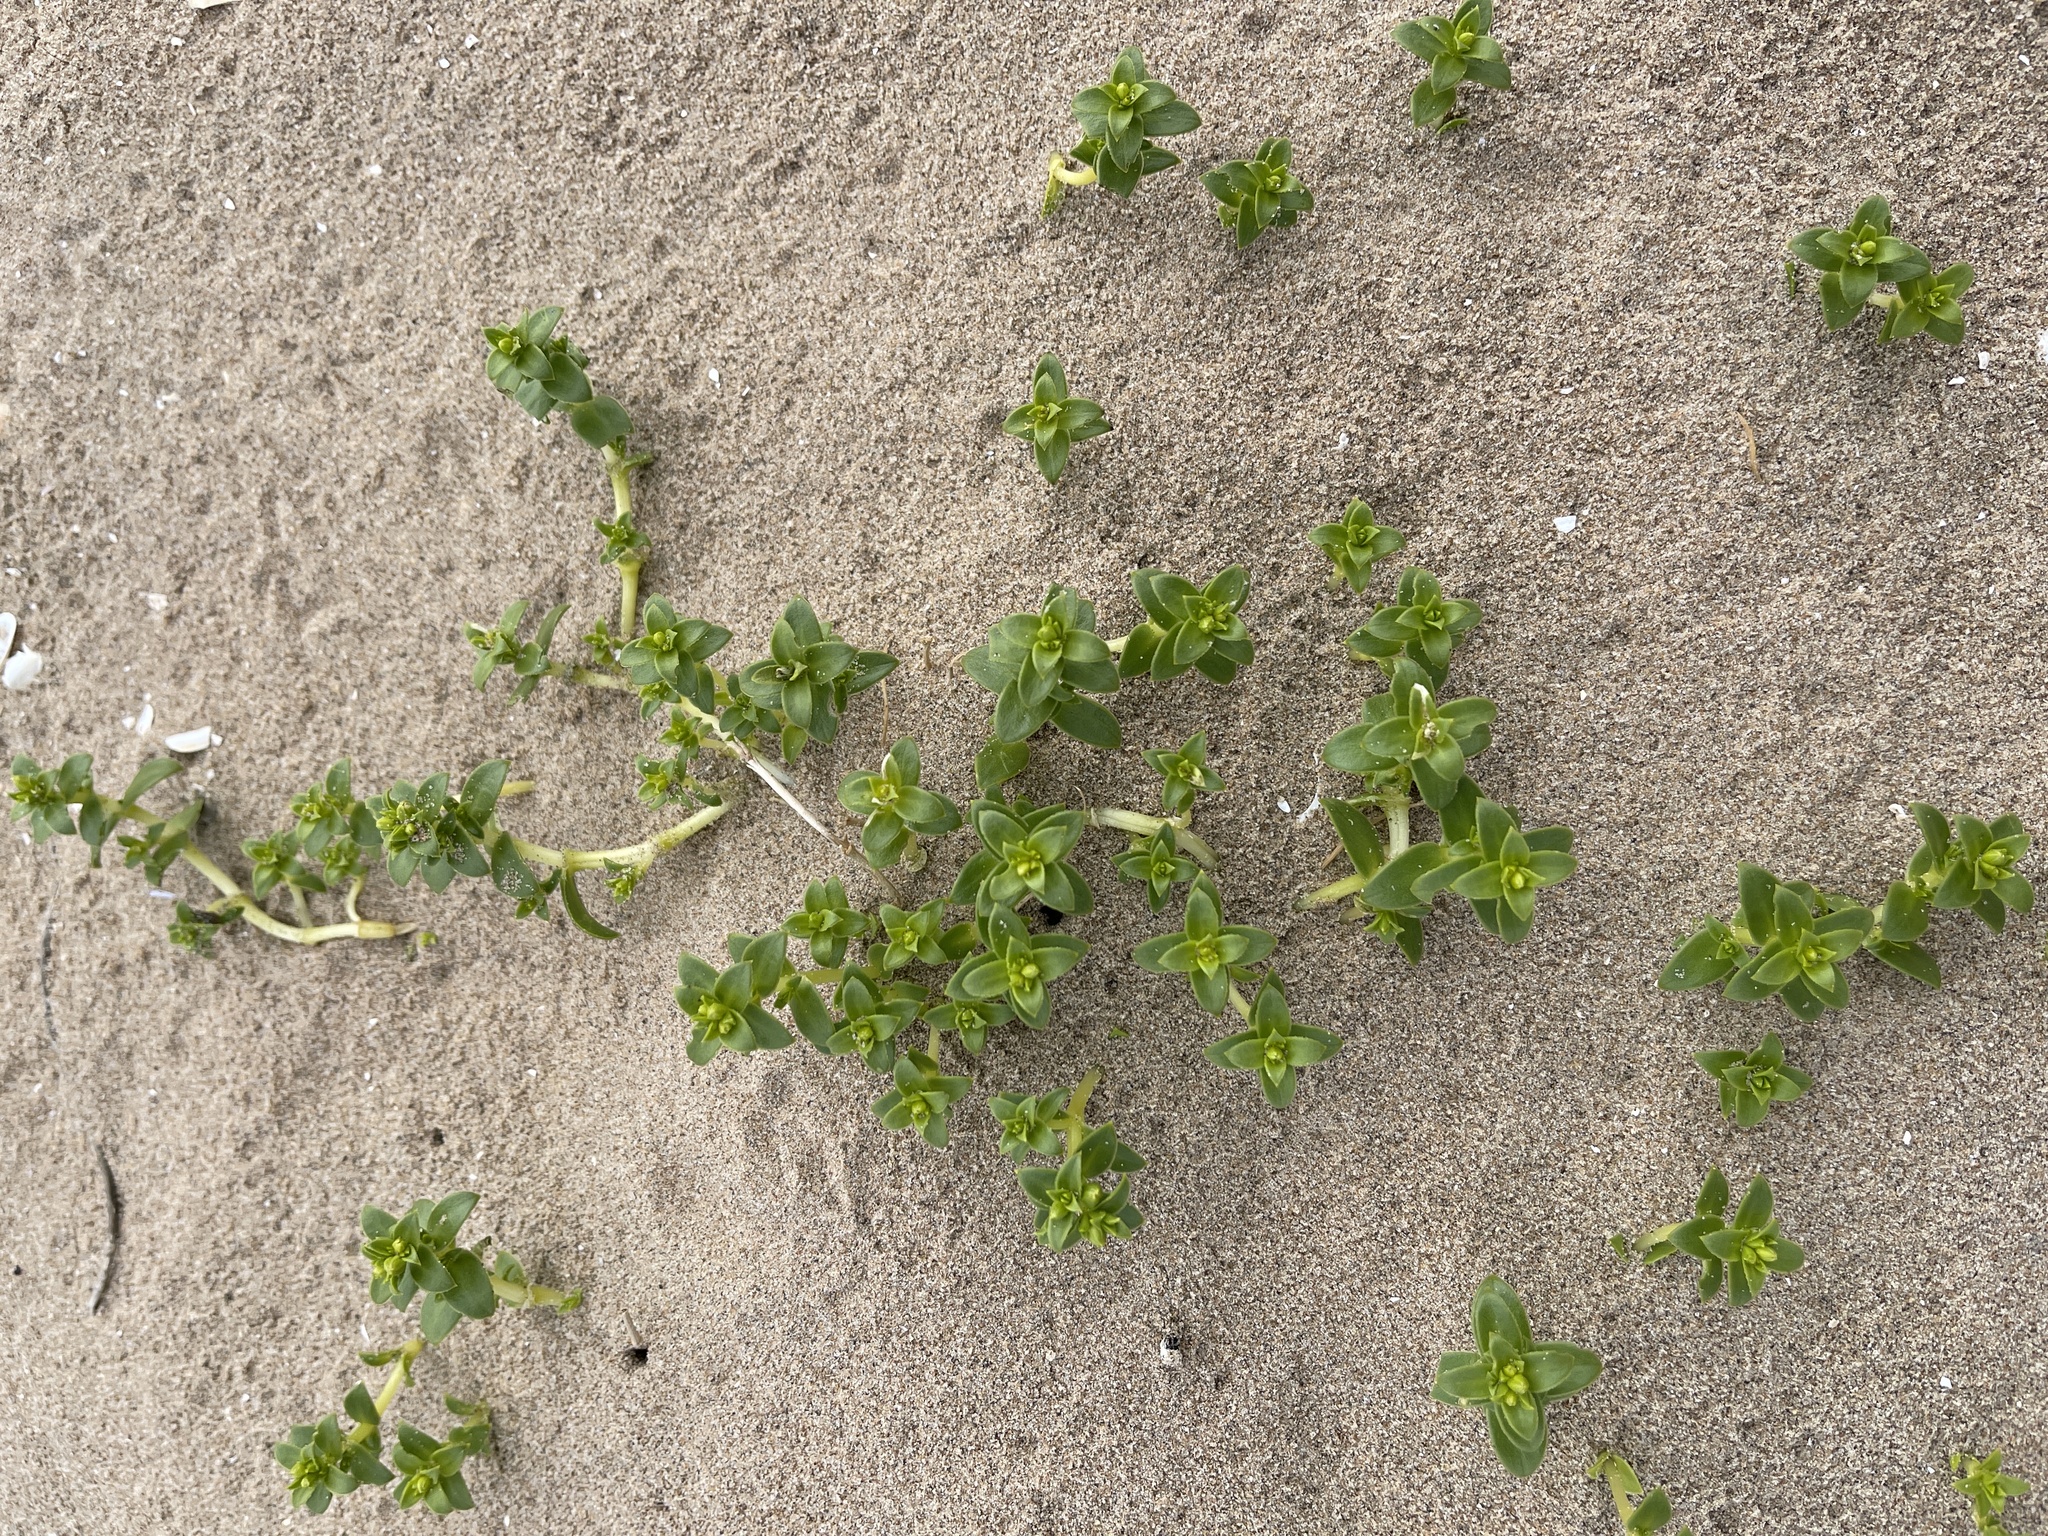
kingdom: Plantae
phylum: Tracheophyta
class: Magnoliopsida
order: Caryophyllales
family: Caryophyllaceae
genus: Honckenya
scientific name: Honckenya peploides
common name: Sea sandwort
